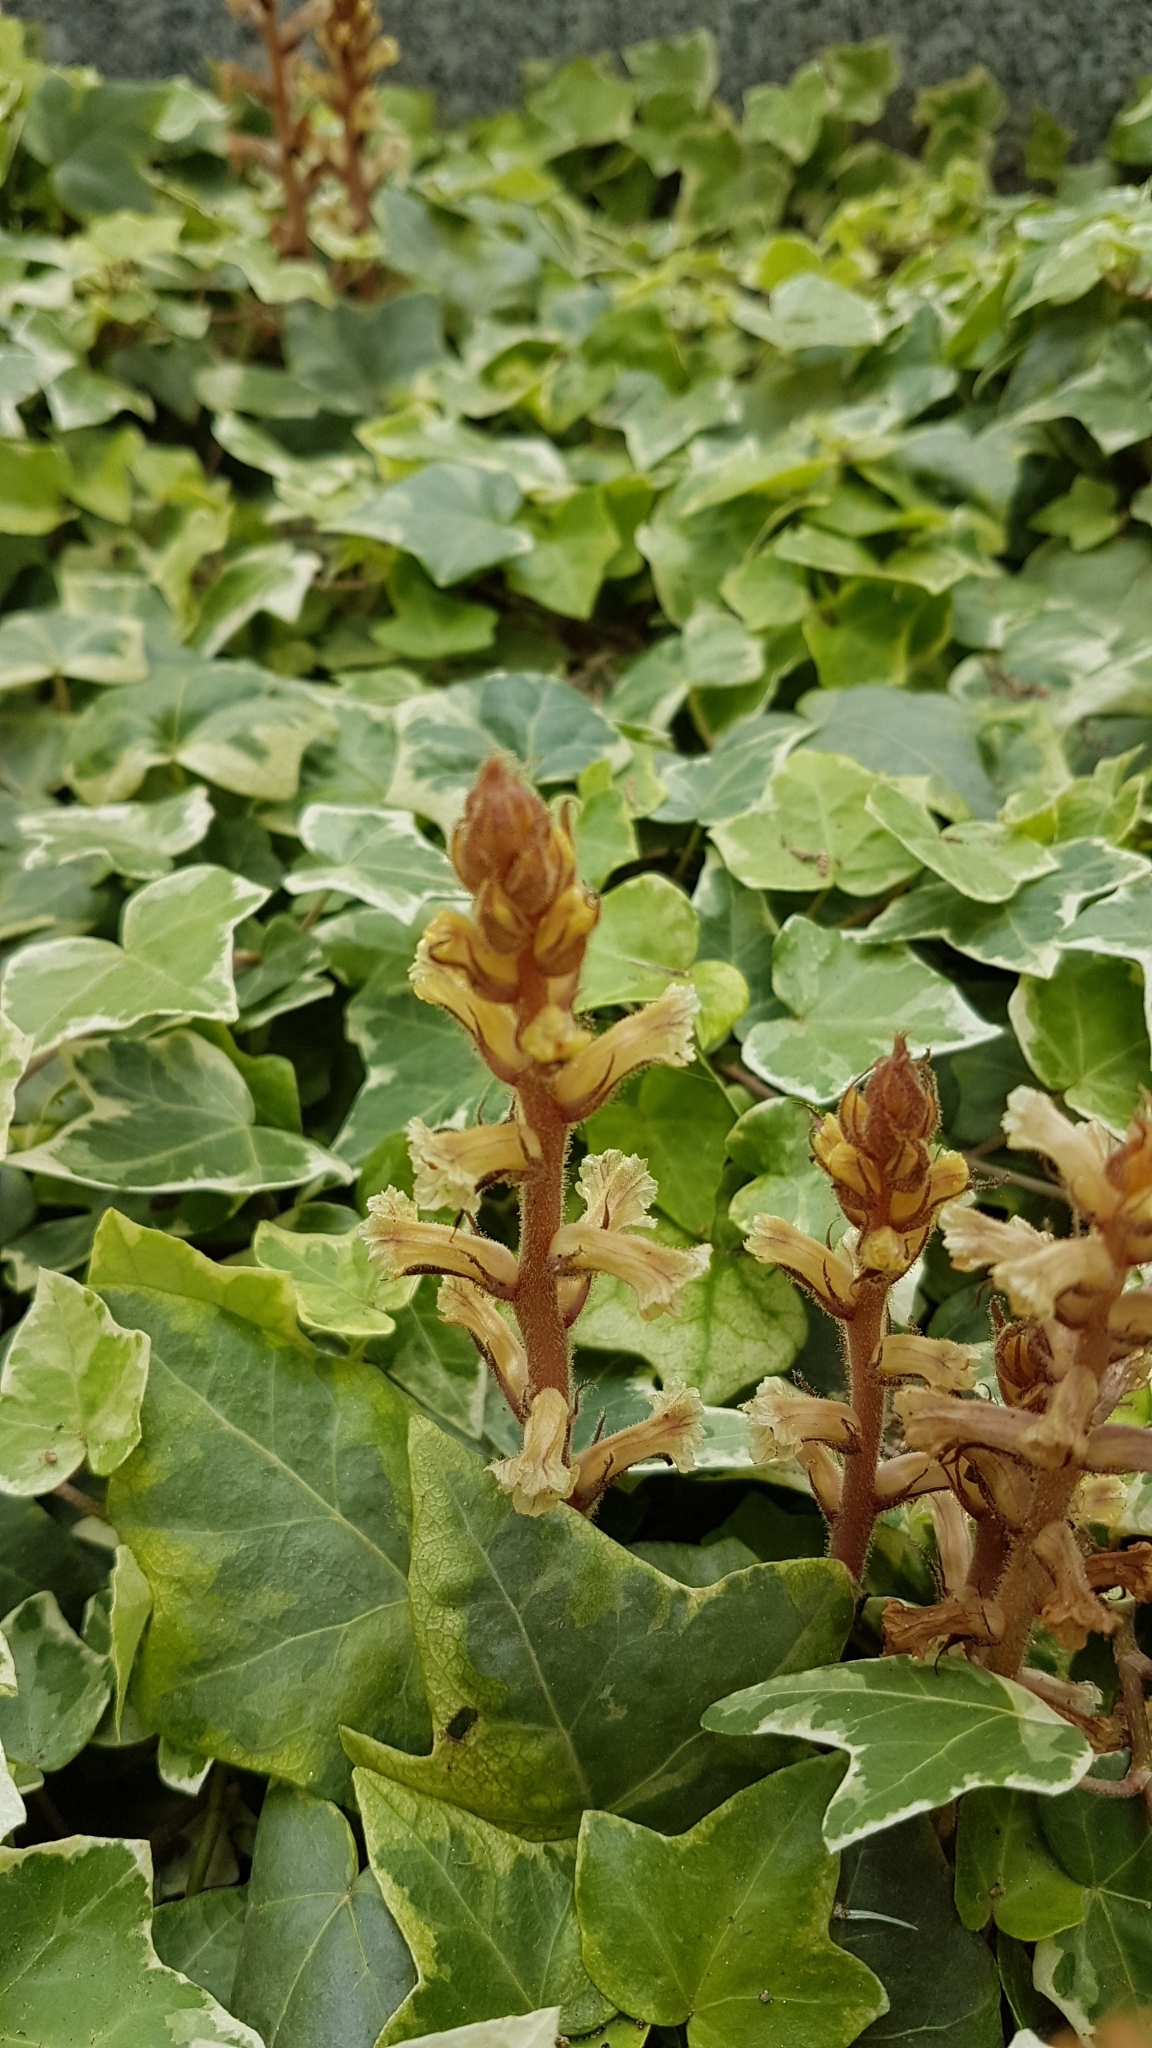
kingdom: Plantae
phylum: Tracheophyta
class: Magnoliopsida
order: Lamiales
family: Orobanchaceae
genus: Orobanche
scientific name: Orobanche hederae
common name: Ivy broomrape
